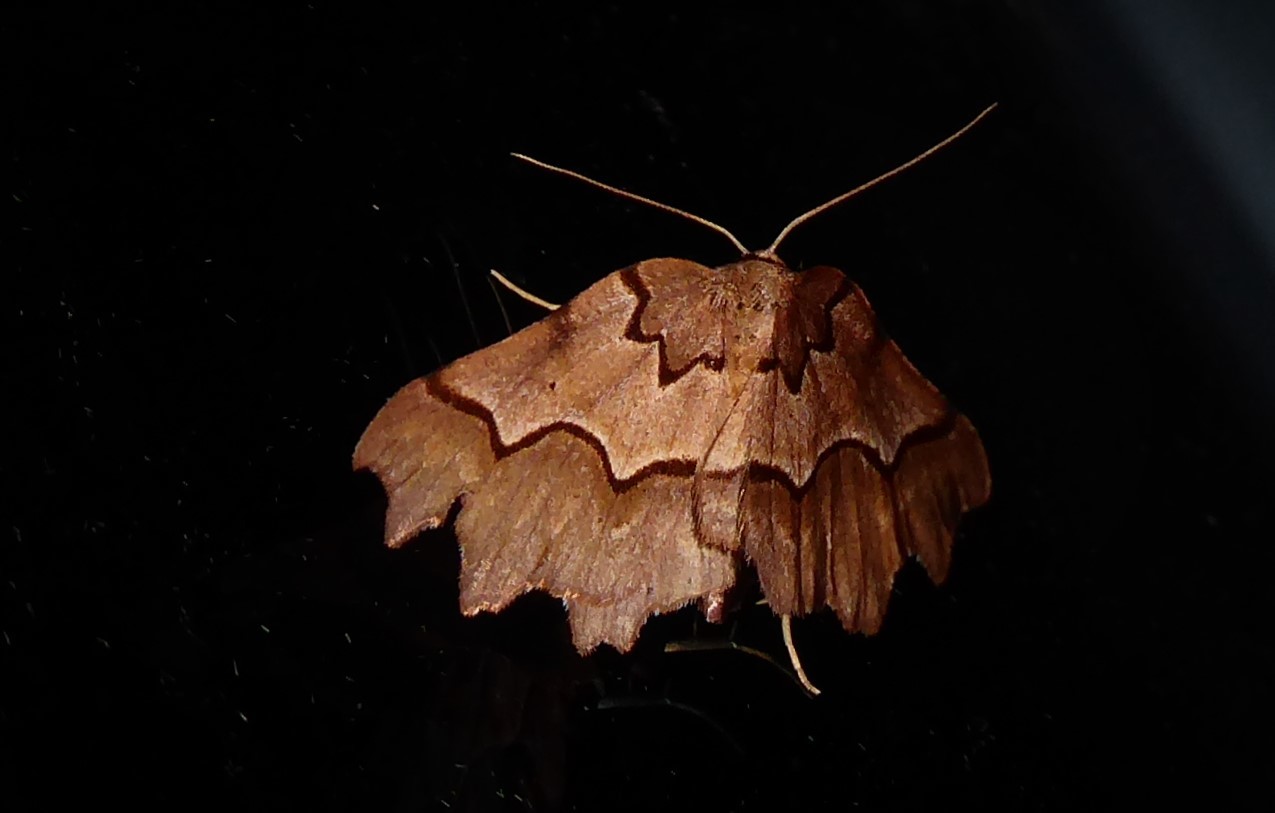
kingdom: Animalia
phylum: Arthropoda
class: Insecta
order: Lepidoptera
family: Geometridae
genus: Ischalis
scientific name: Ischalis fortinata
